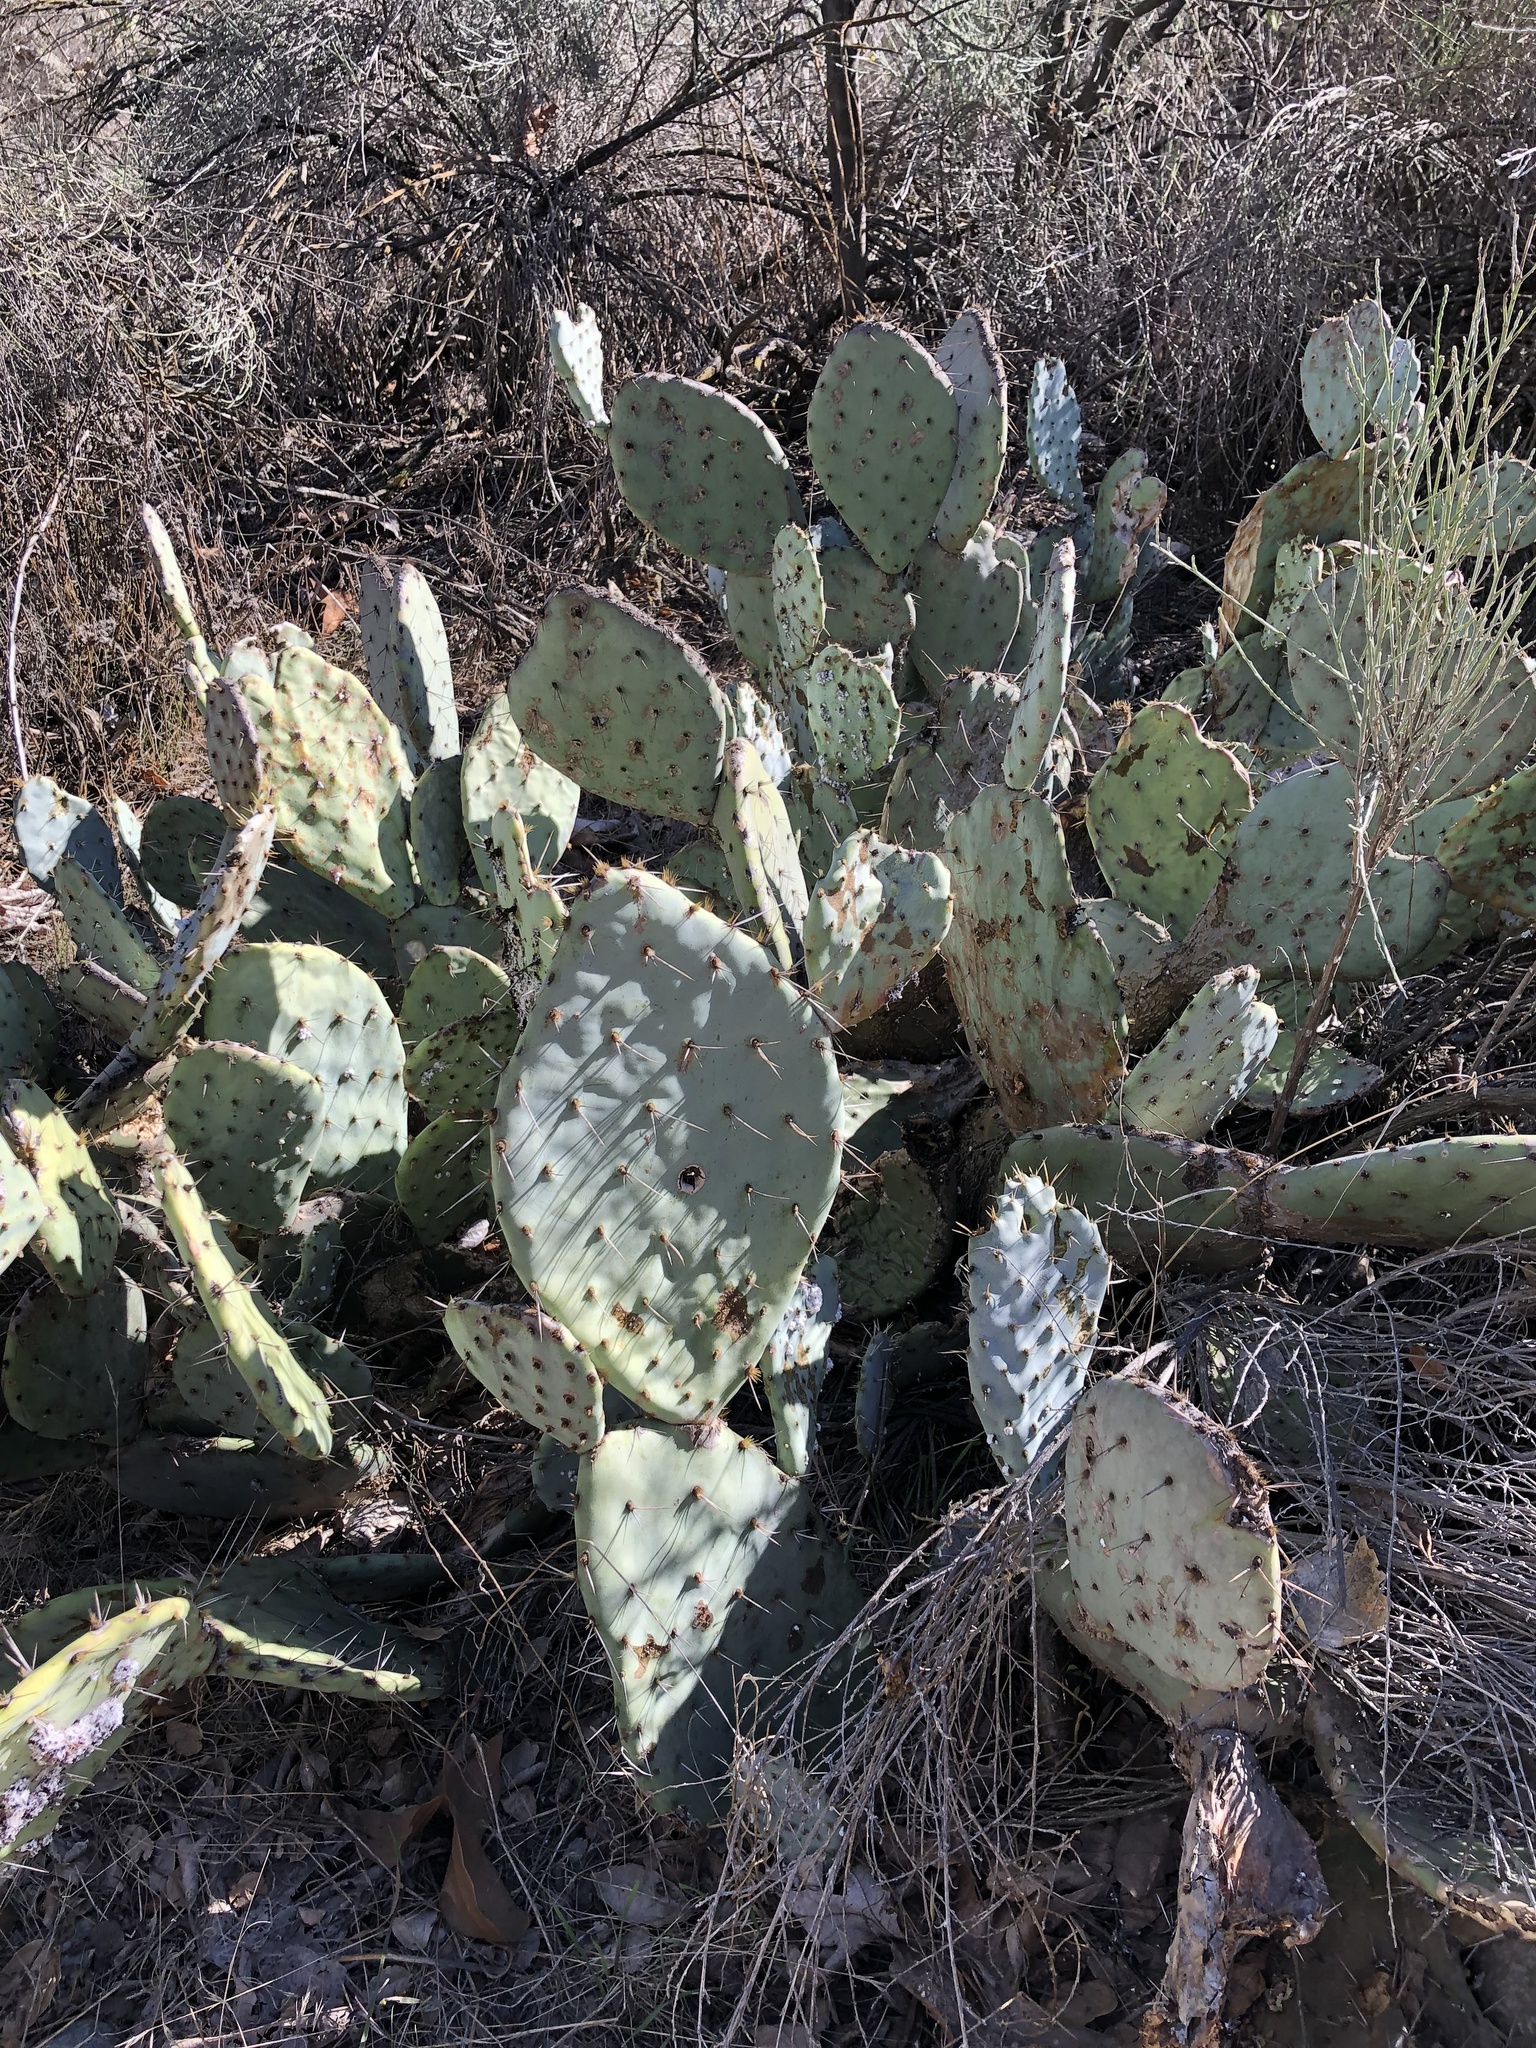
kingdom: Plantae
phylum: Tracheophyta
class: Magnoliopsida
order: Caryophyllales
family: Cactaceae
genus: Opuntia
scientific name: Opuntia
